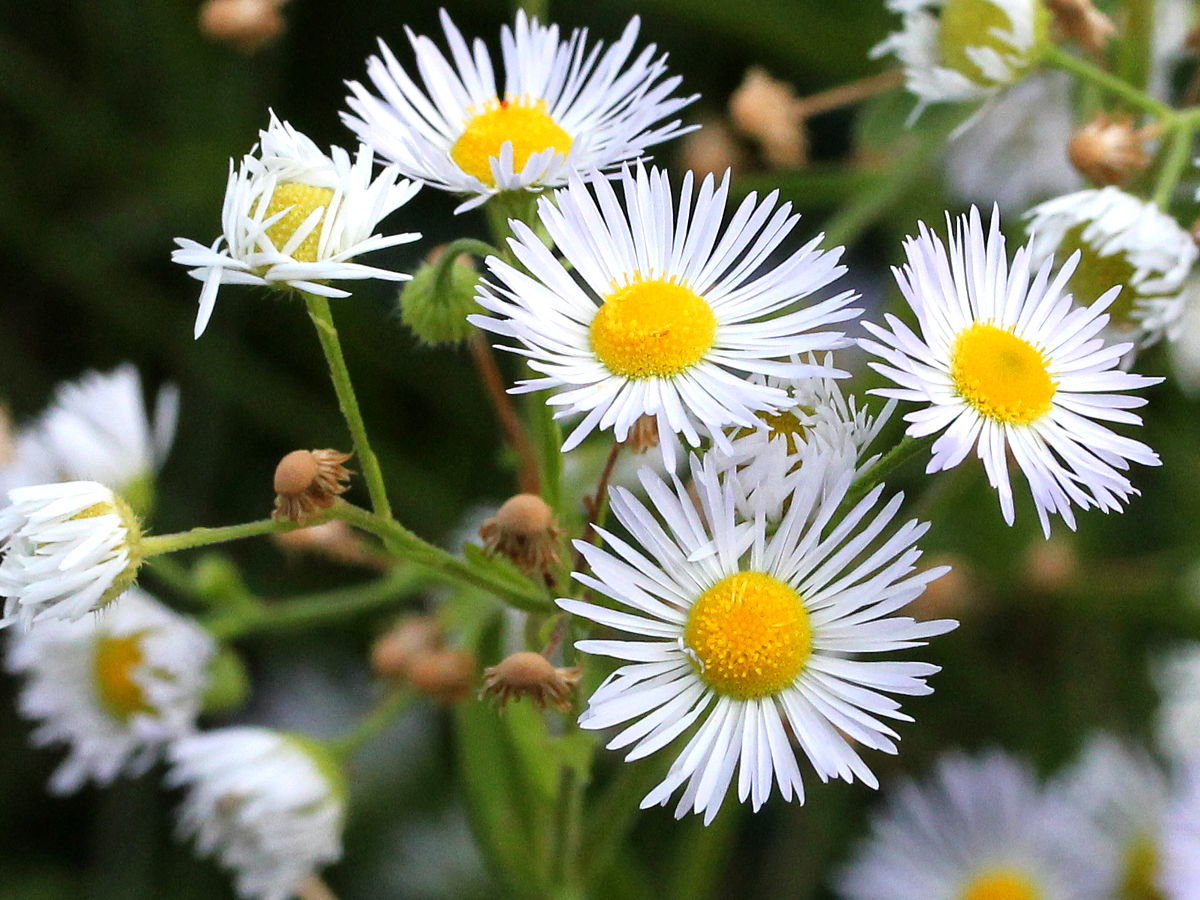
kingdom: Plantae
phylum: Tracheophyta
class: Magnoliopsida
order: Asterales
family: Asteraceae
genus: Erigeron
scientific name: Erigeron annuus
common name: Tall fleabane
